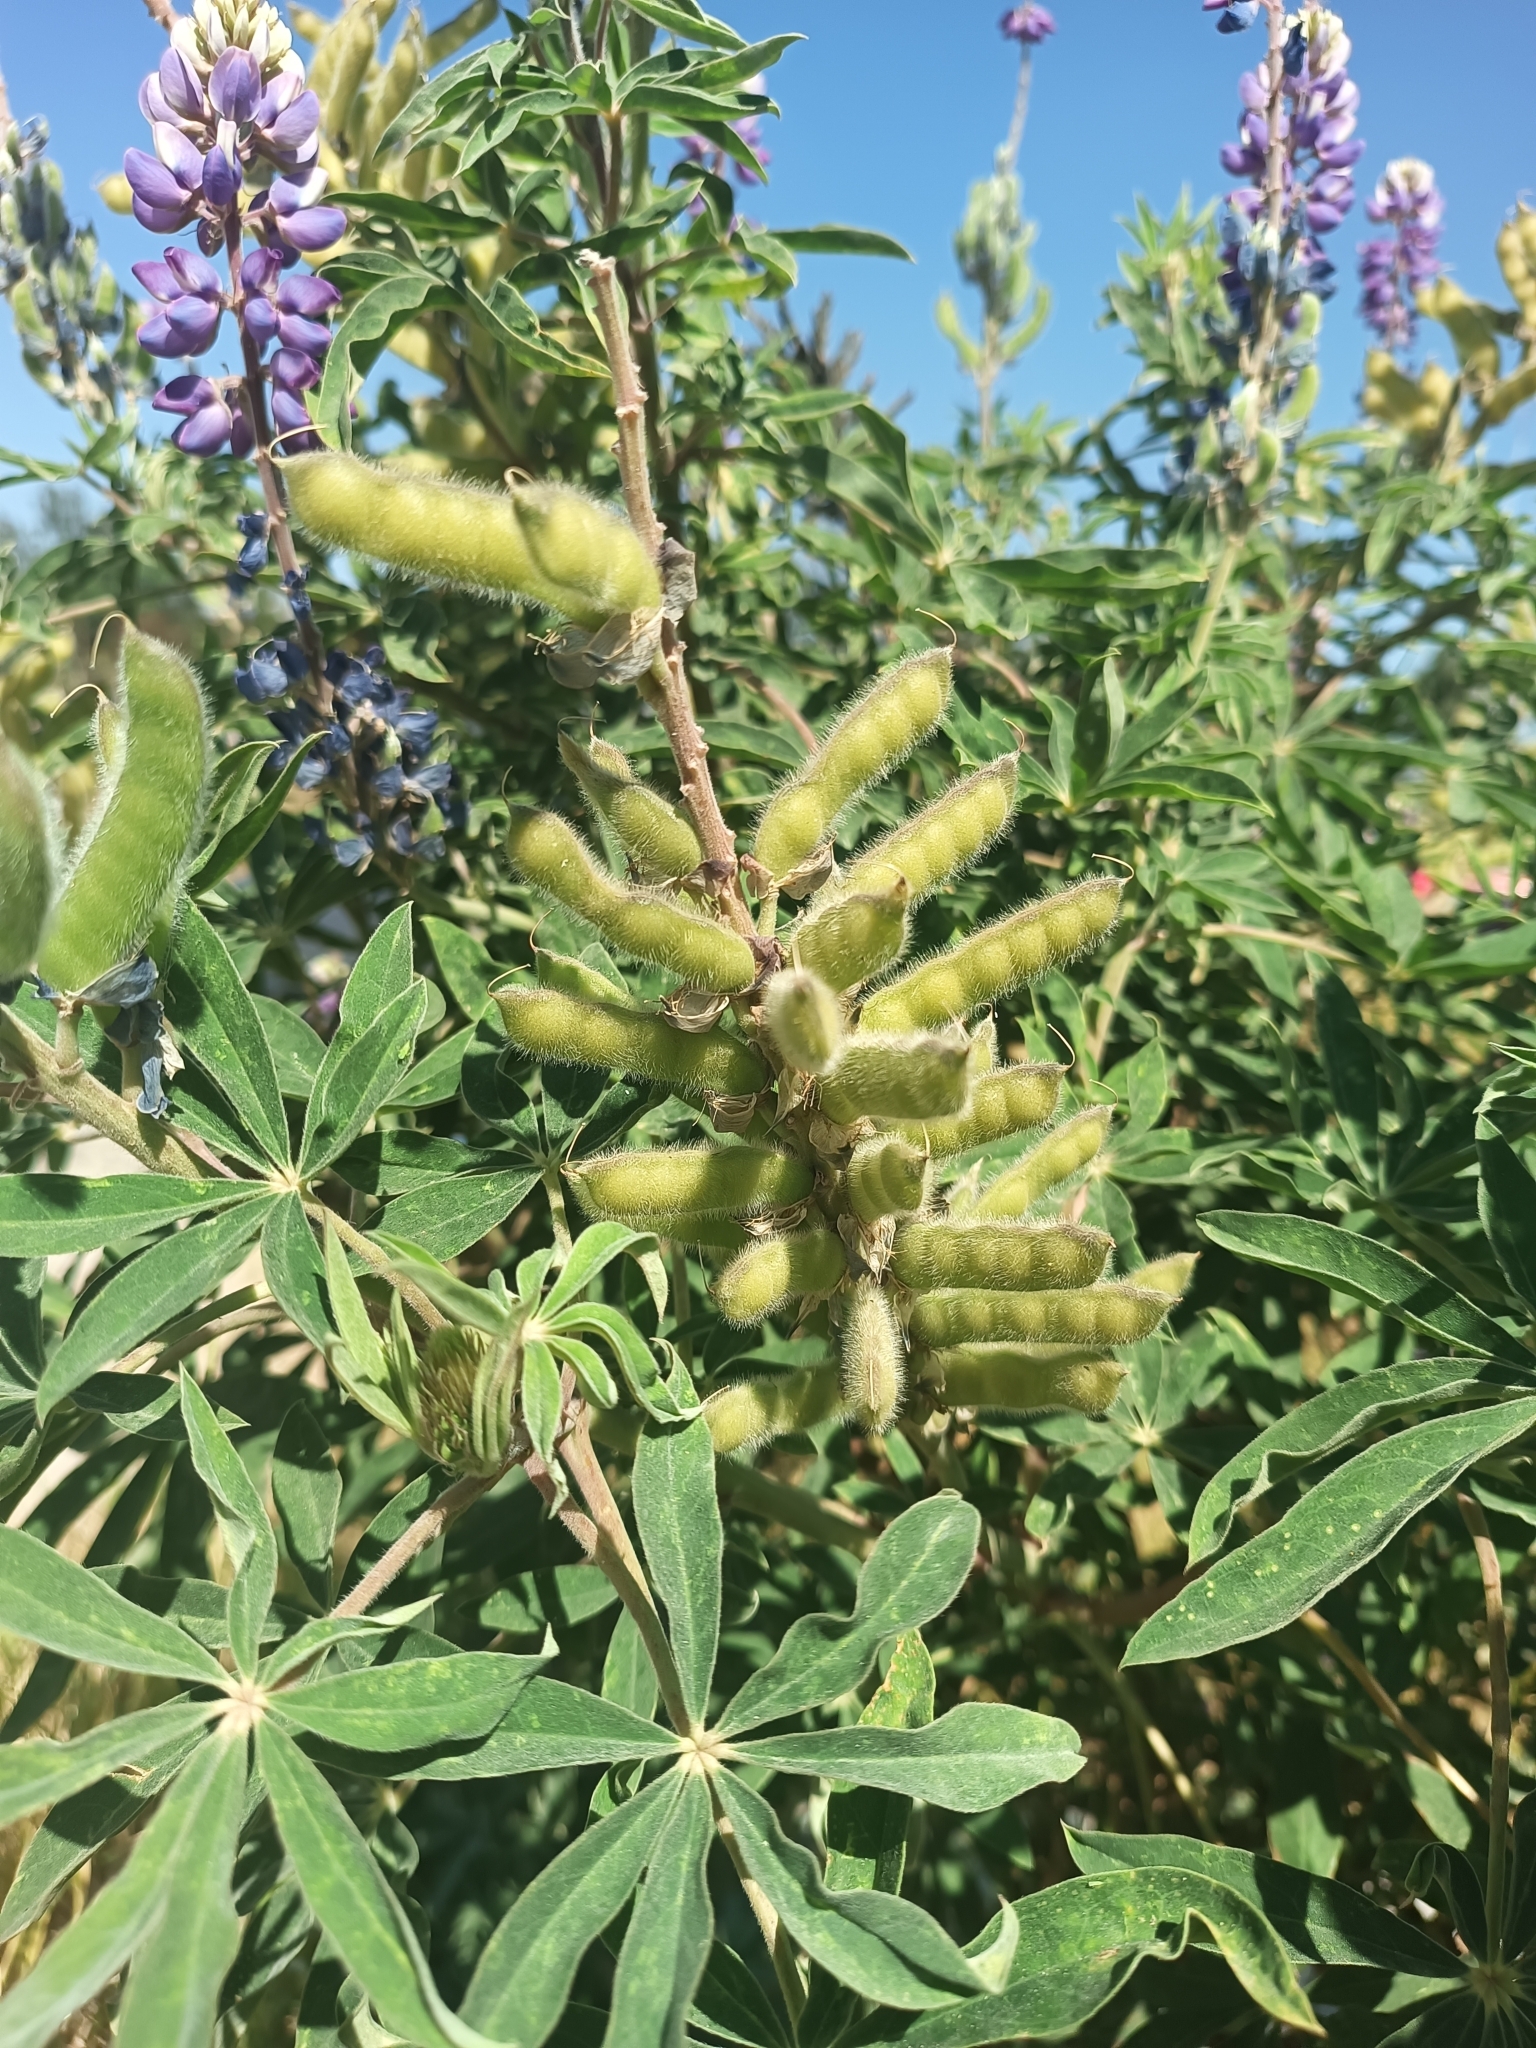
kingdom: Plantae
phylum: Tracheophyta
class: Magnoliopsida
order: Fabales
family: Fabaceae
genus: Lupinus
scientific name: Lupinus latifolius
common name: Broad-leaved lupine
